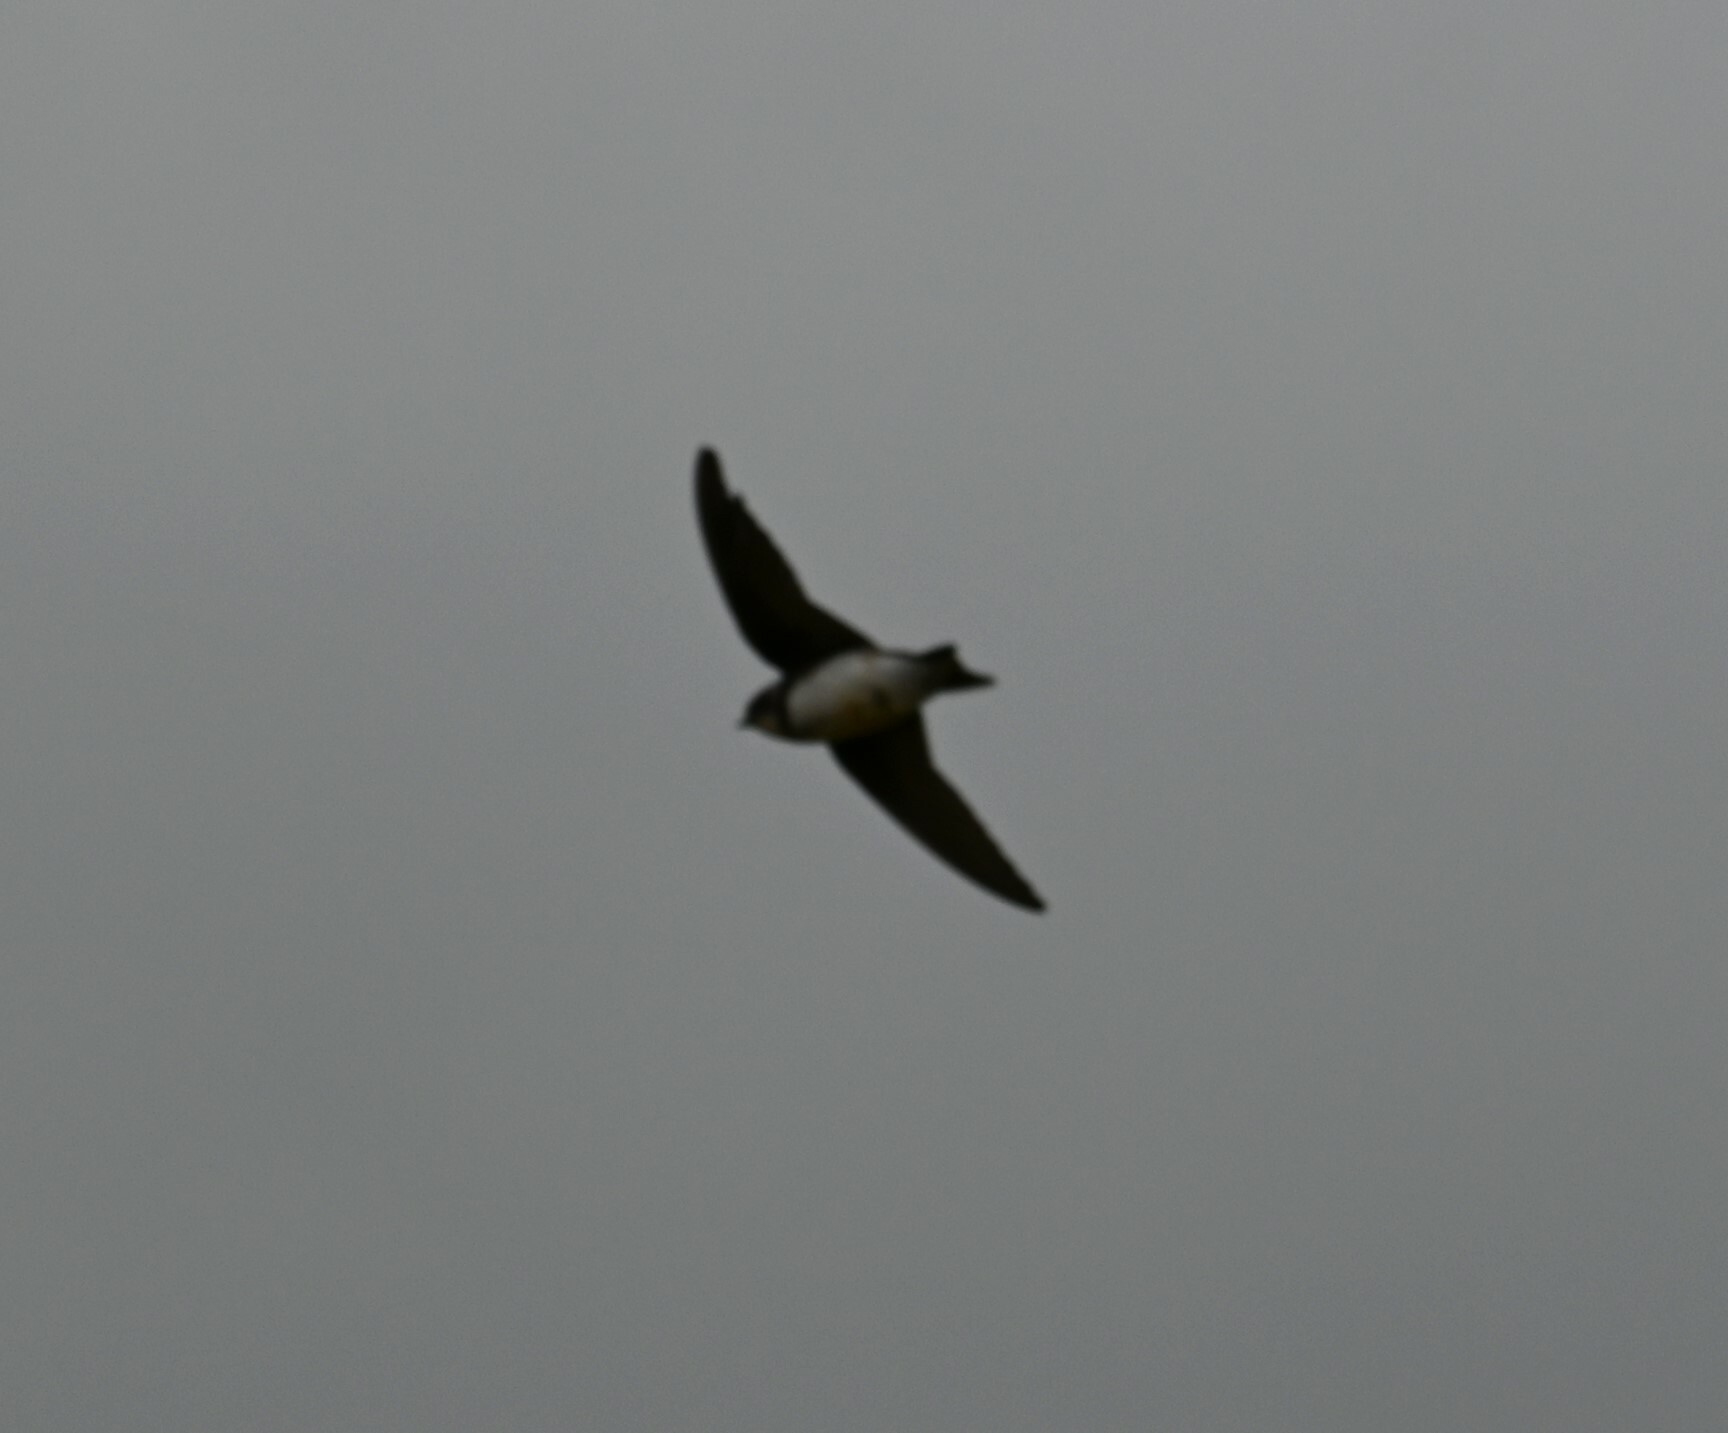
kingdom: Animalia
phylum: Chordata
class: Aves
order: Passeriformes
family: Hirundinidae
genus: Riparia
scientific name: Riparia riparia
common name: Sand martin
